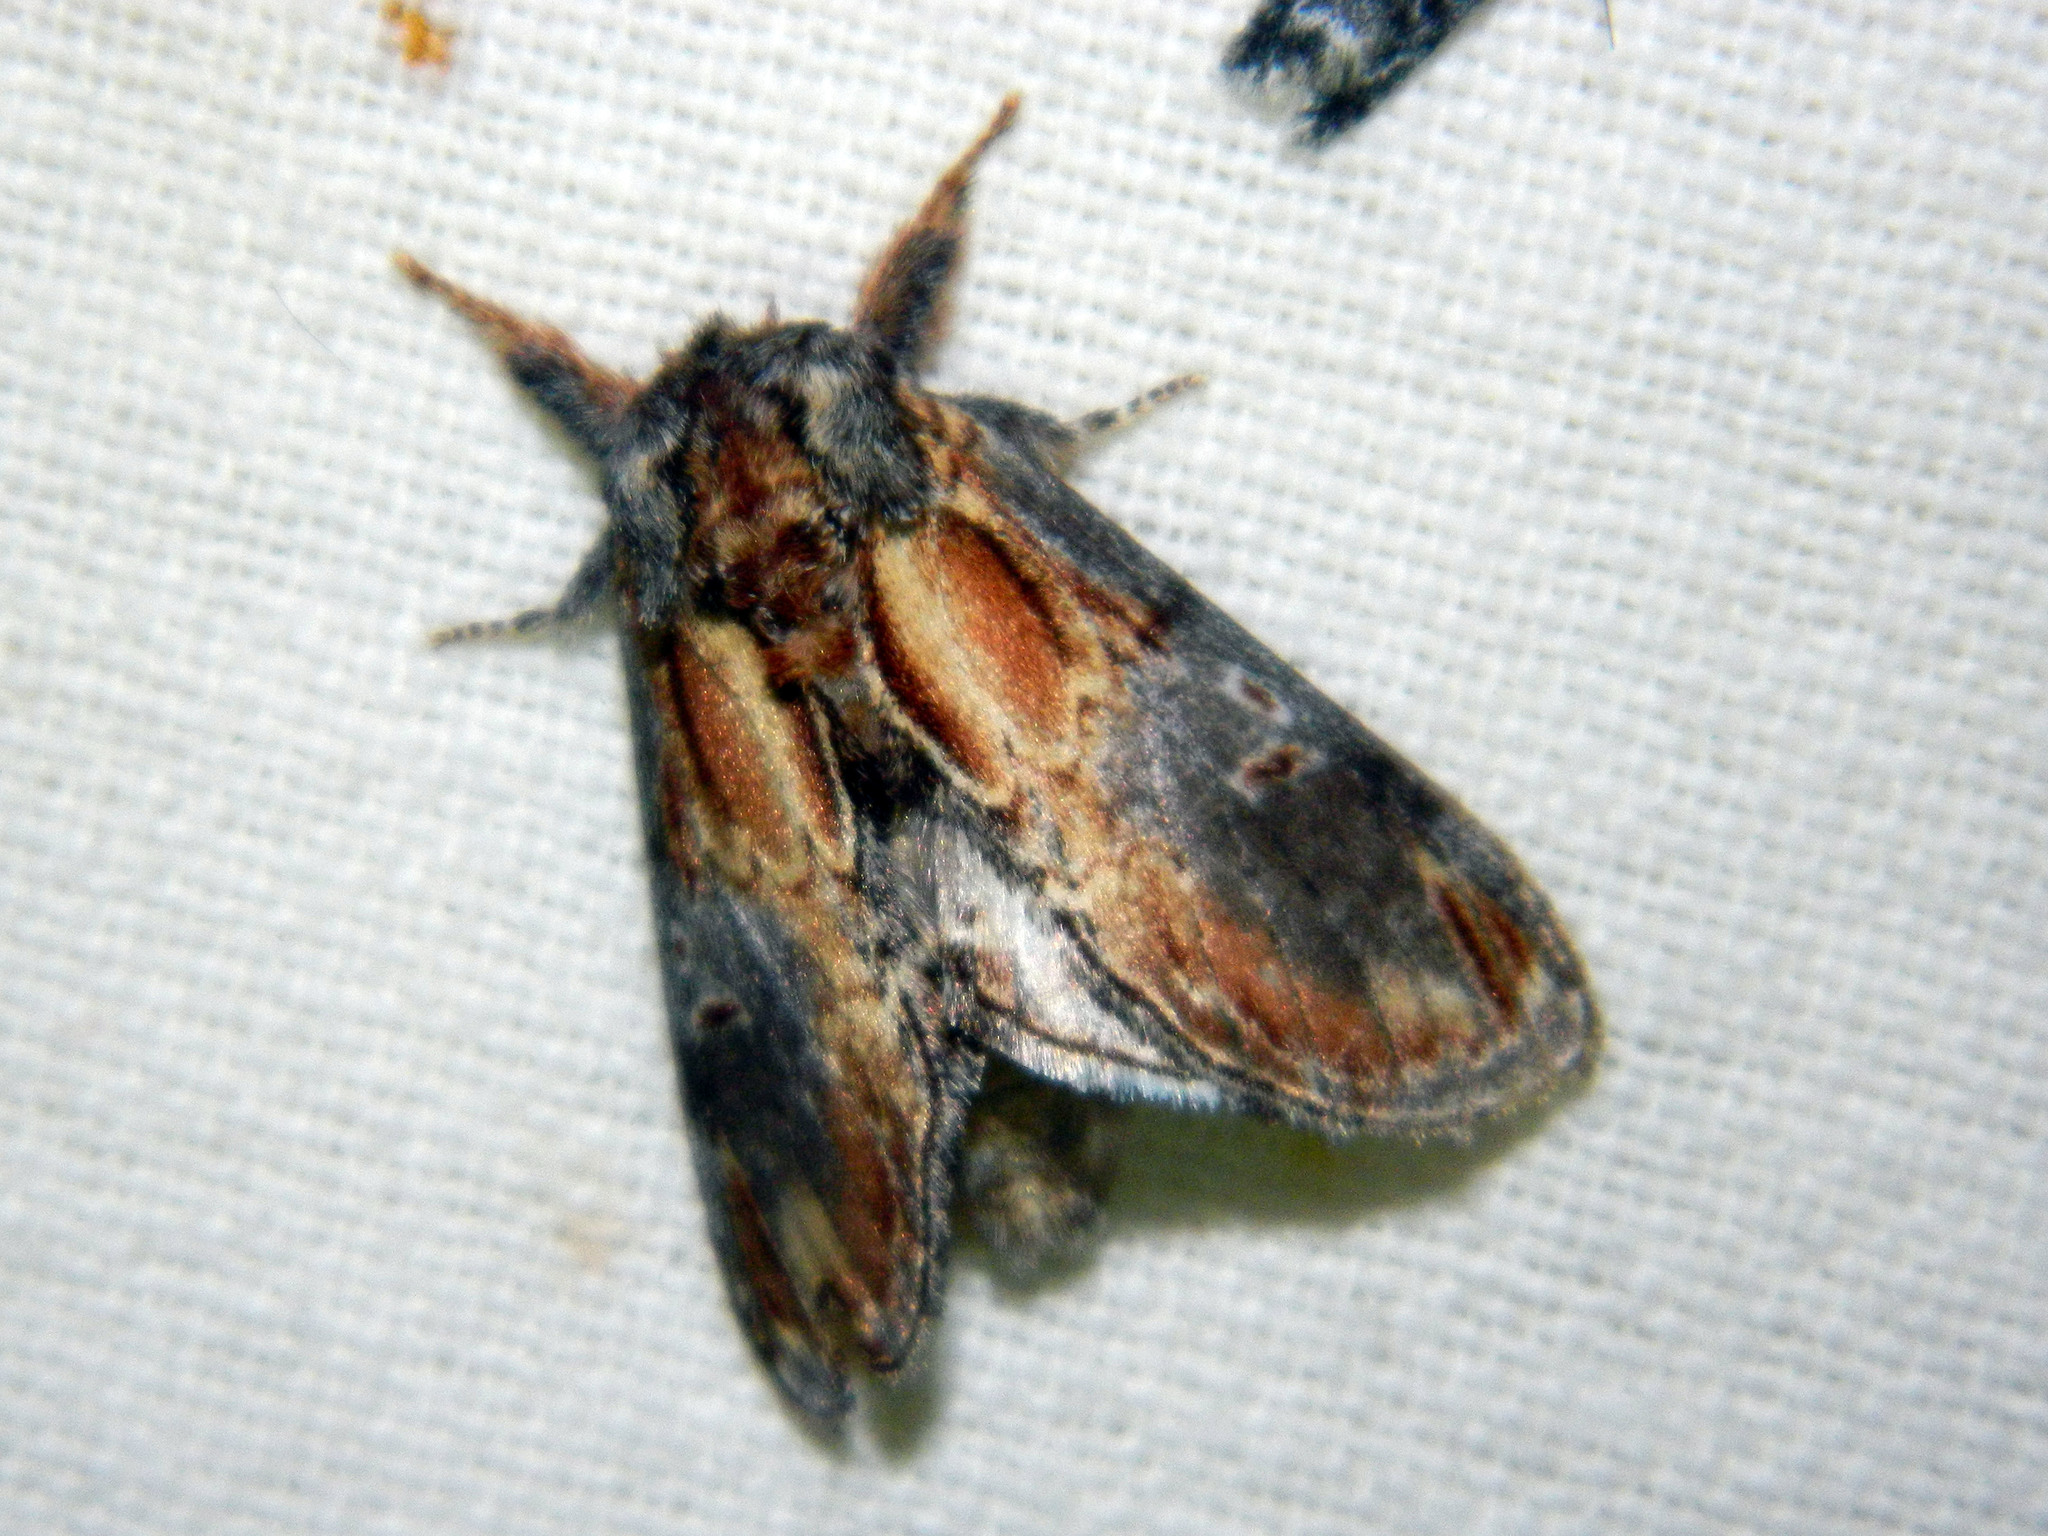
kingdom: Animalia
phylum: Arthropoda
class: Insecta
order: Lepidoptera
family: Notodontidae
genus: Notodonta
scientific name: Notodonta scitipennis
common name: Finned-willow prominent moth
